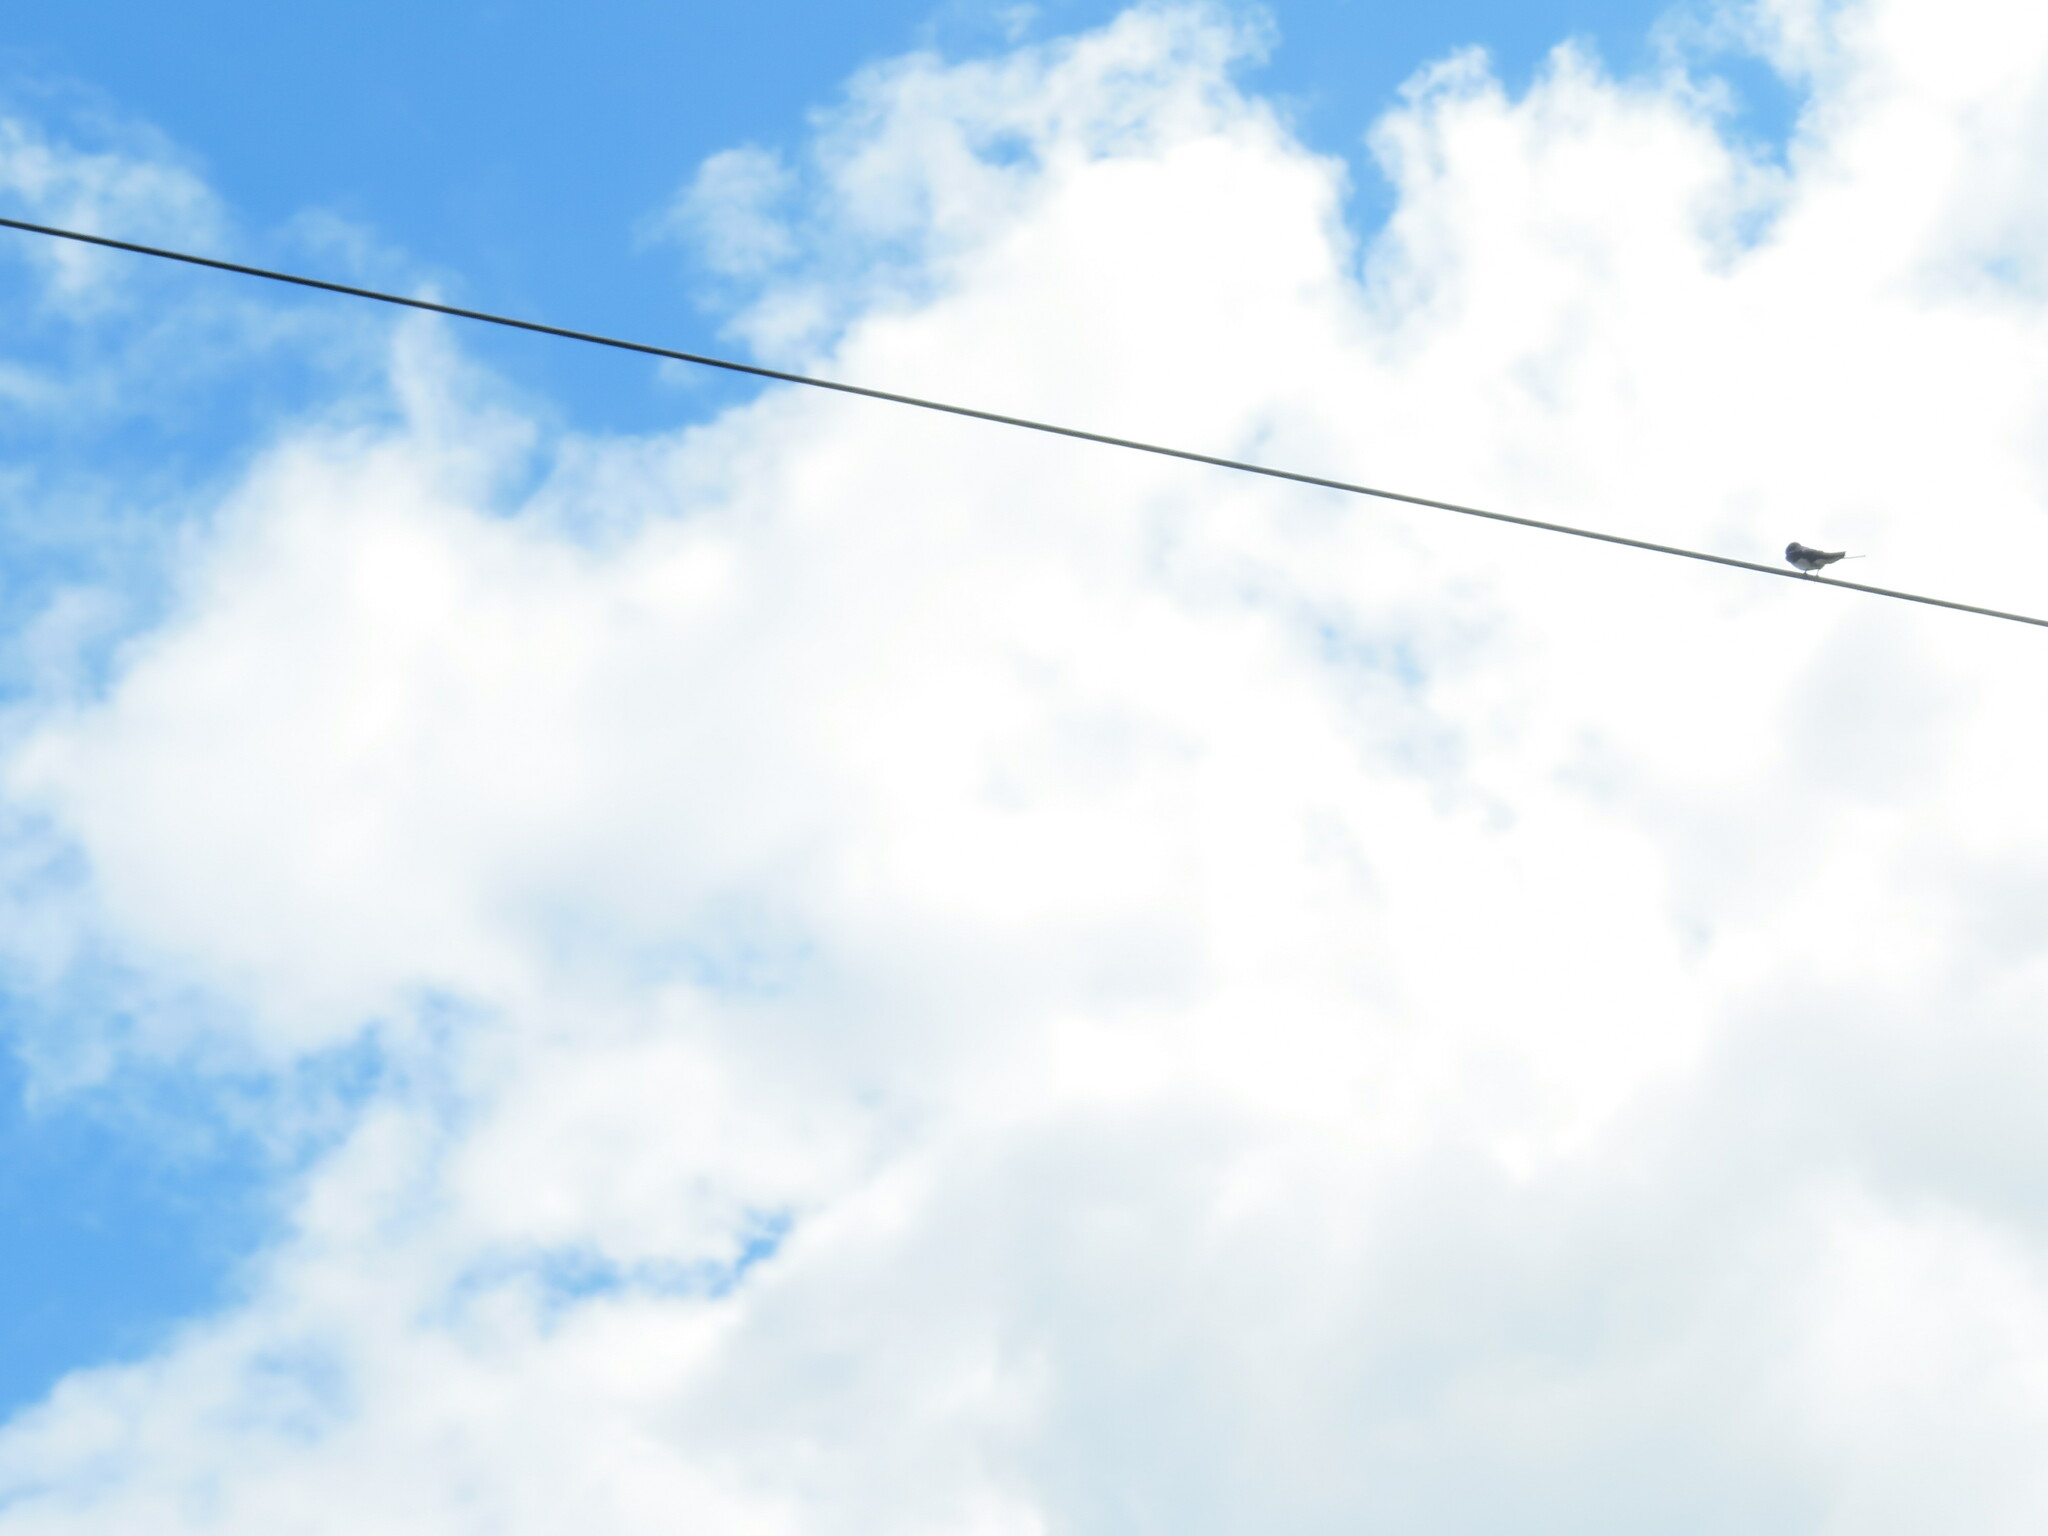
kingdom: Animalia
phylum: Chordata
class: Aves
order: Passeriformes
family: Hirundinidae
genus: Hirundo
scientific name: Hirundo rustica
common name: Barn swallow
